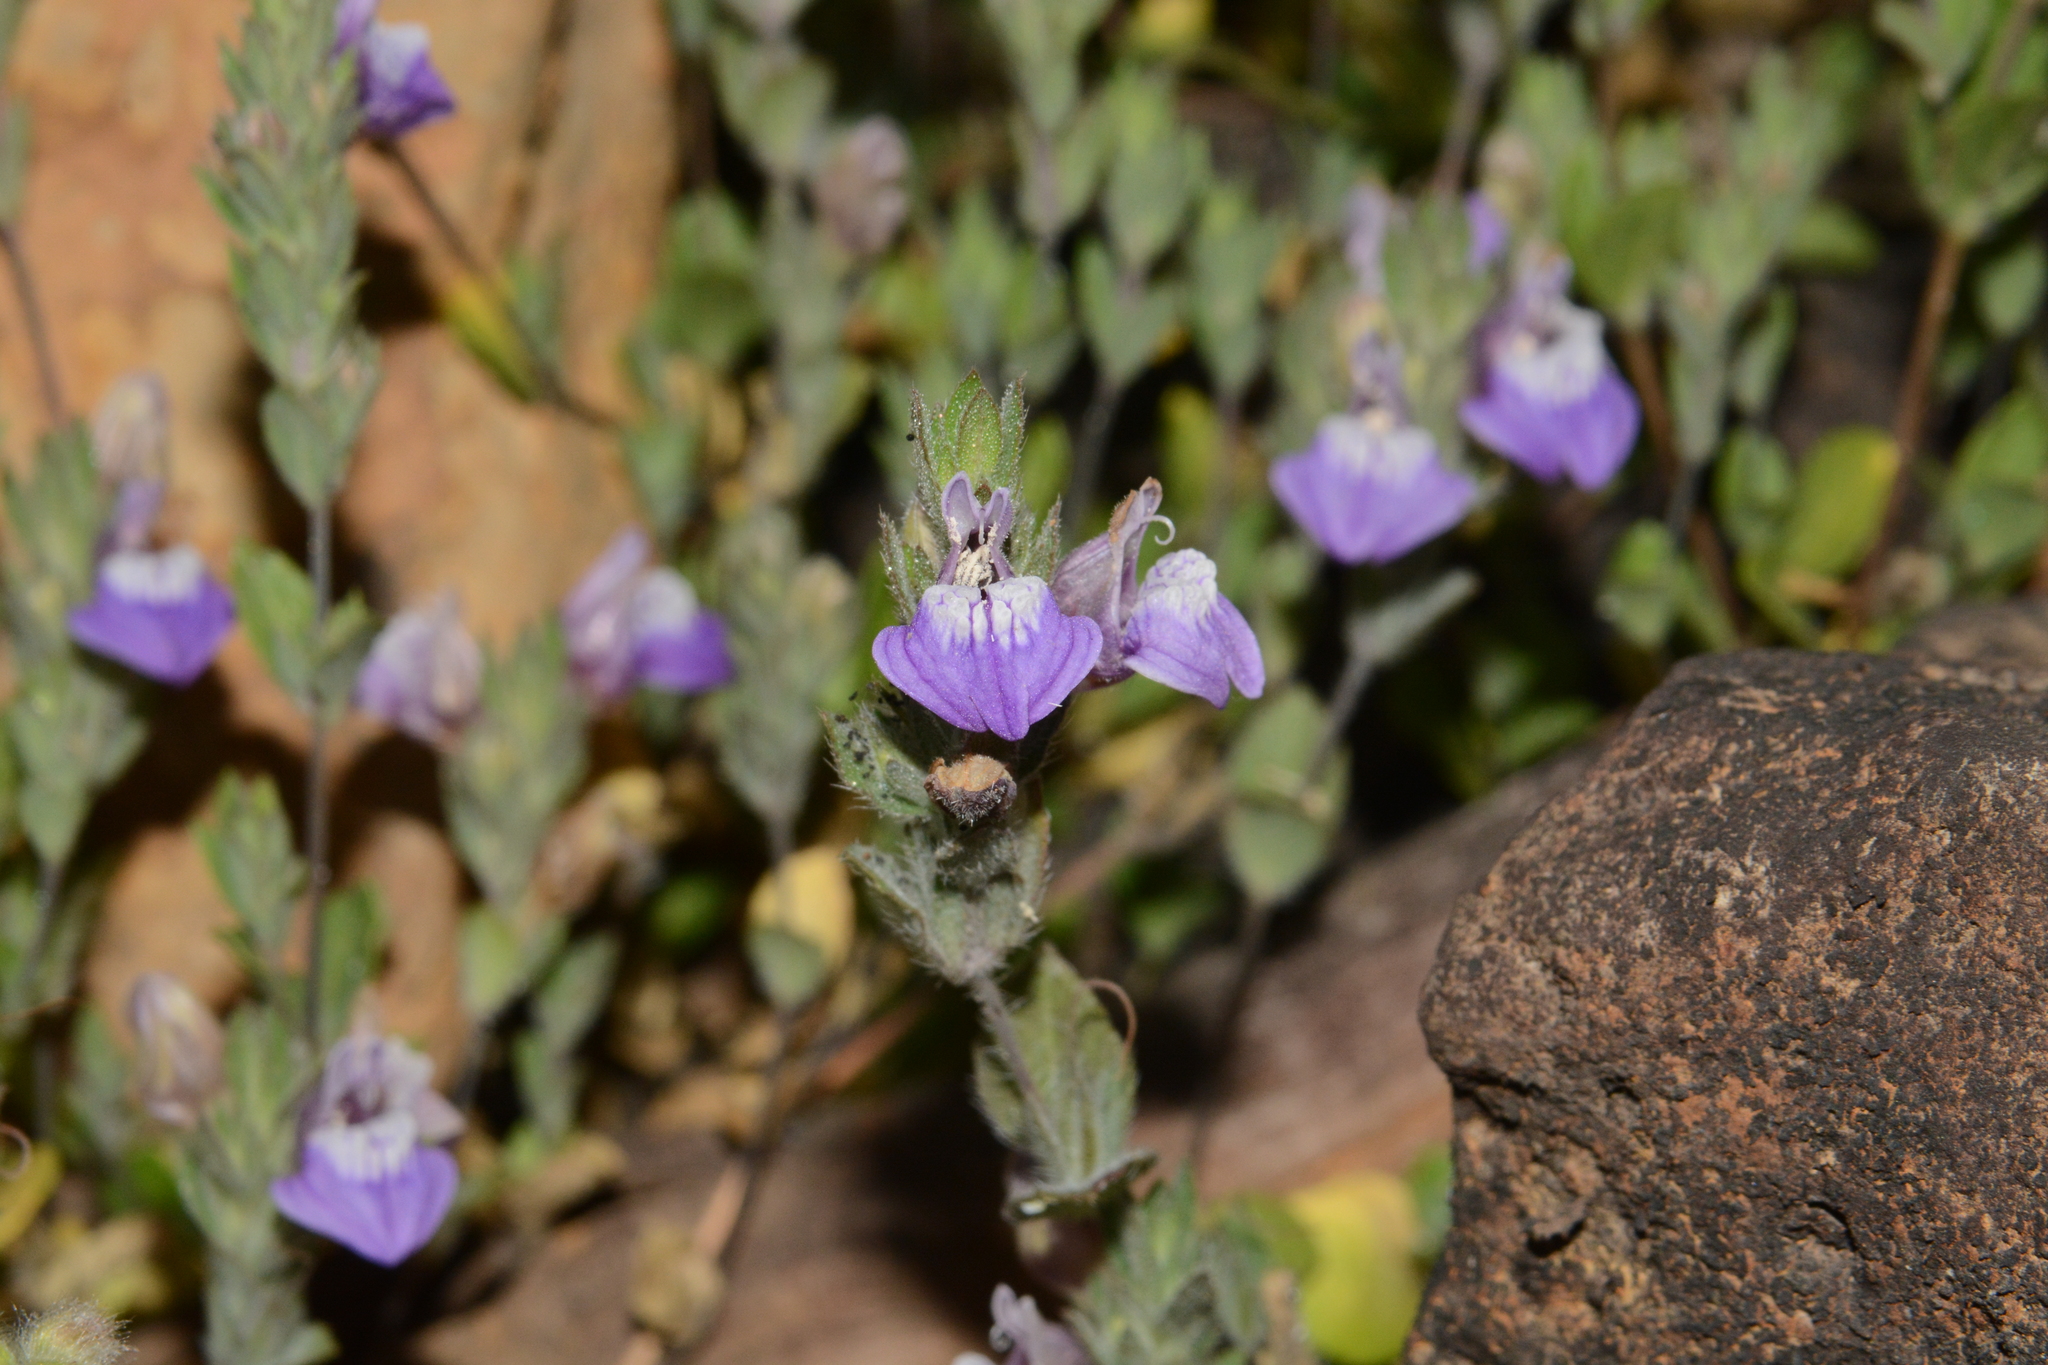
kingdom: Plantae
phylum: Tracheophyta
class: Magnoliopsida
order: Lamiales
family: Acanthaceae
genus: Hygrophila
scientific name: Hygrophila serpyllum
